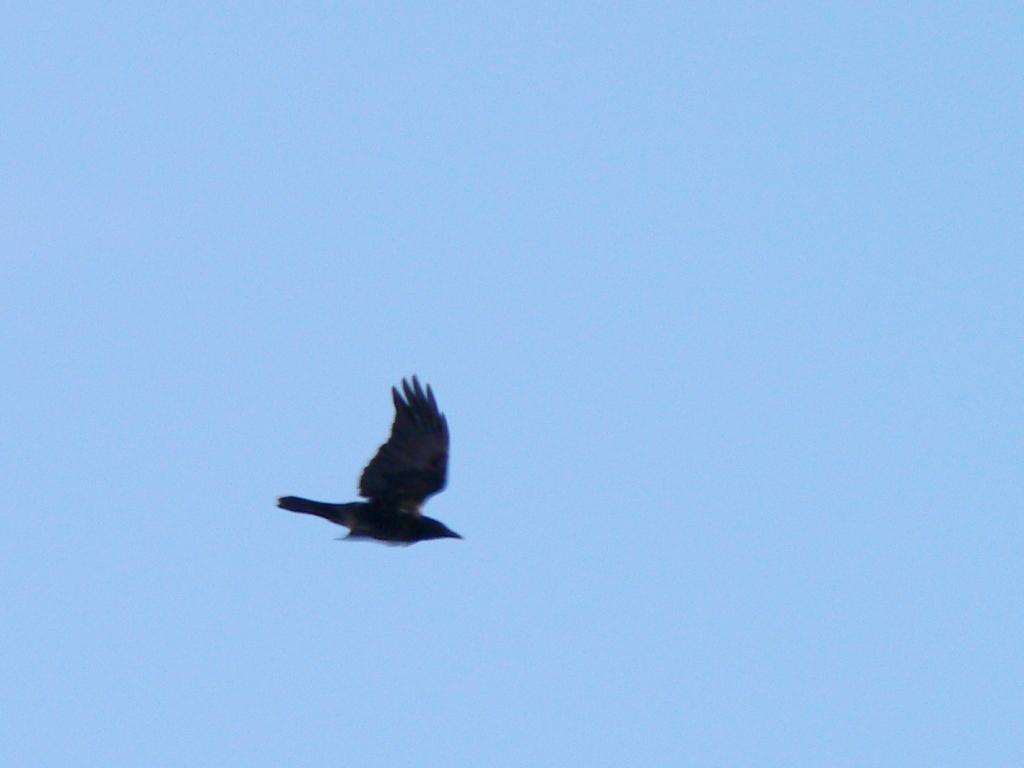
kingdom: Animalia
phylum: Chordata
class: Aves
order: Passeriformes
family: Corvidae
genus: Corvus
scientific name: Corvus corone
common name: Carrion crow
